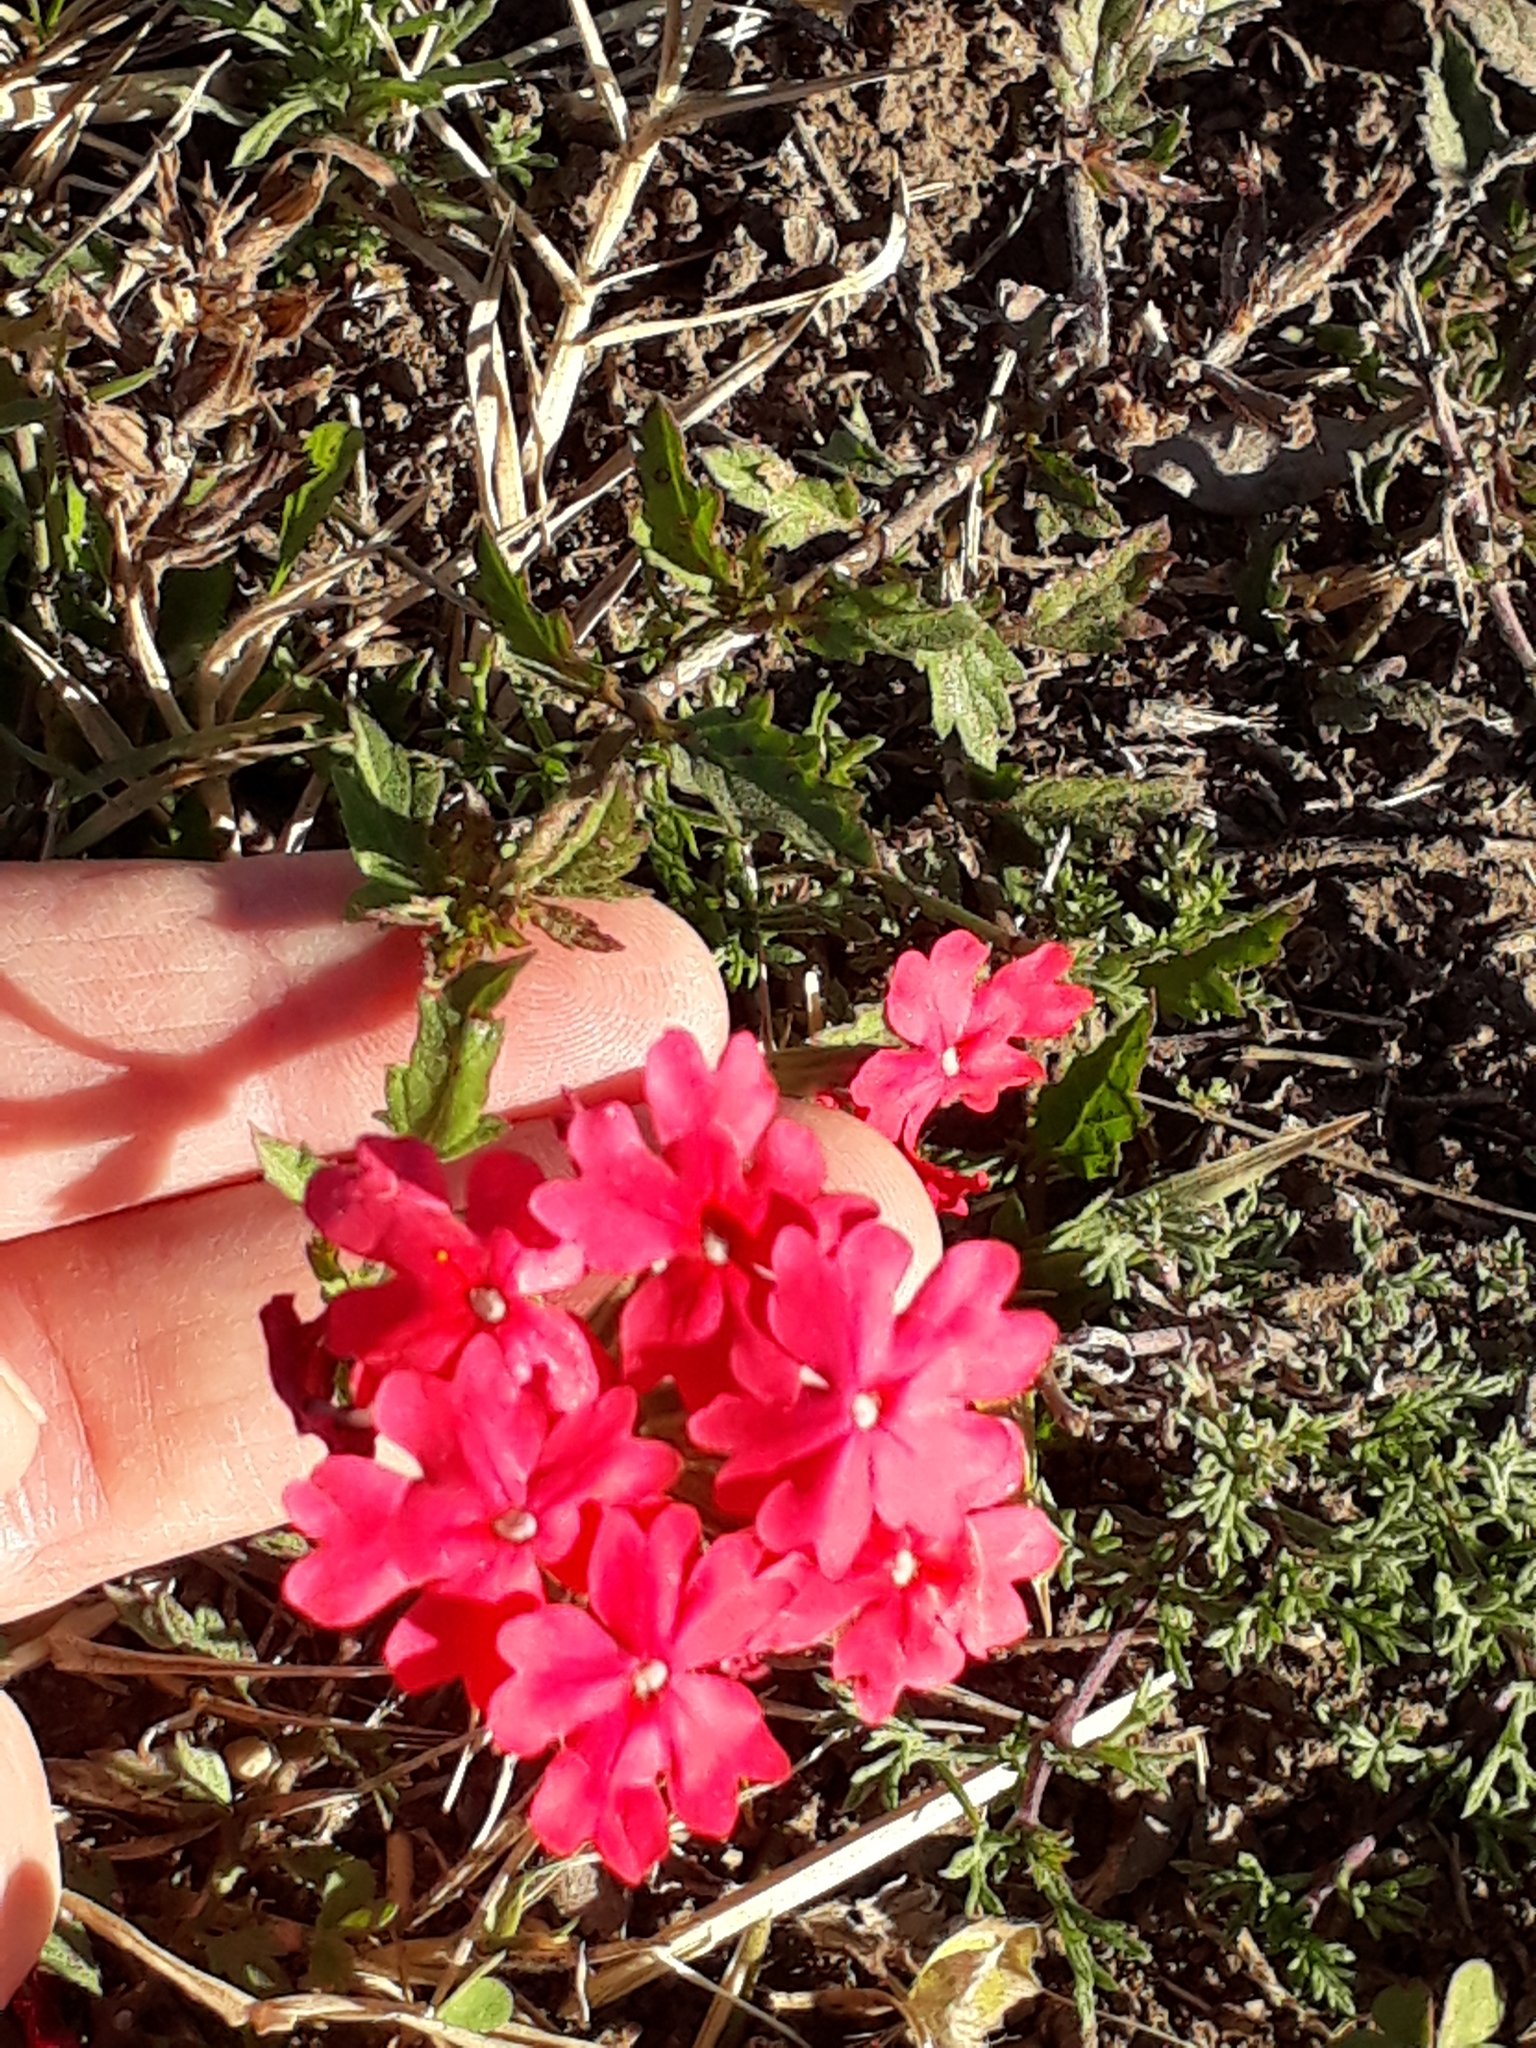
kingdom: Plantae
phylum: Tracheophyta
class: Magnoliopsida
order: Lamiales
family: Verbenaceae
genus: Verbena
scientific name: Verbena peruviana
